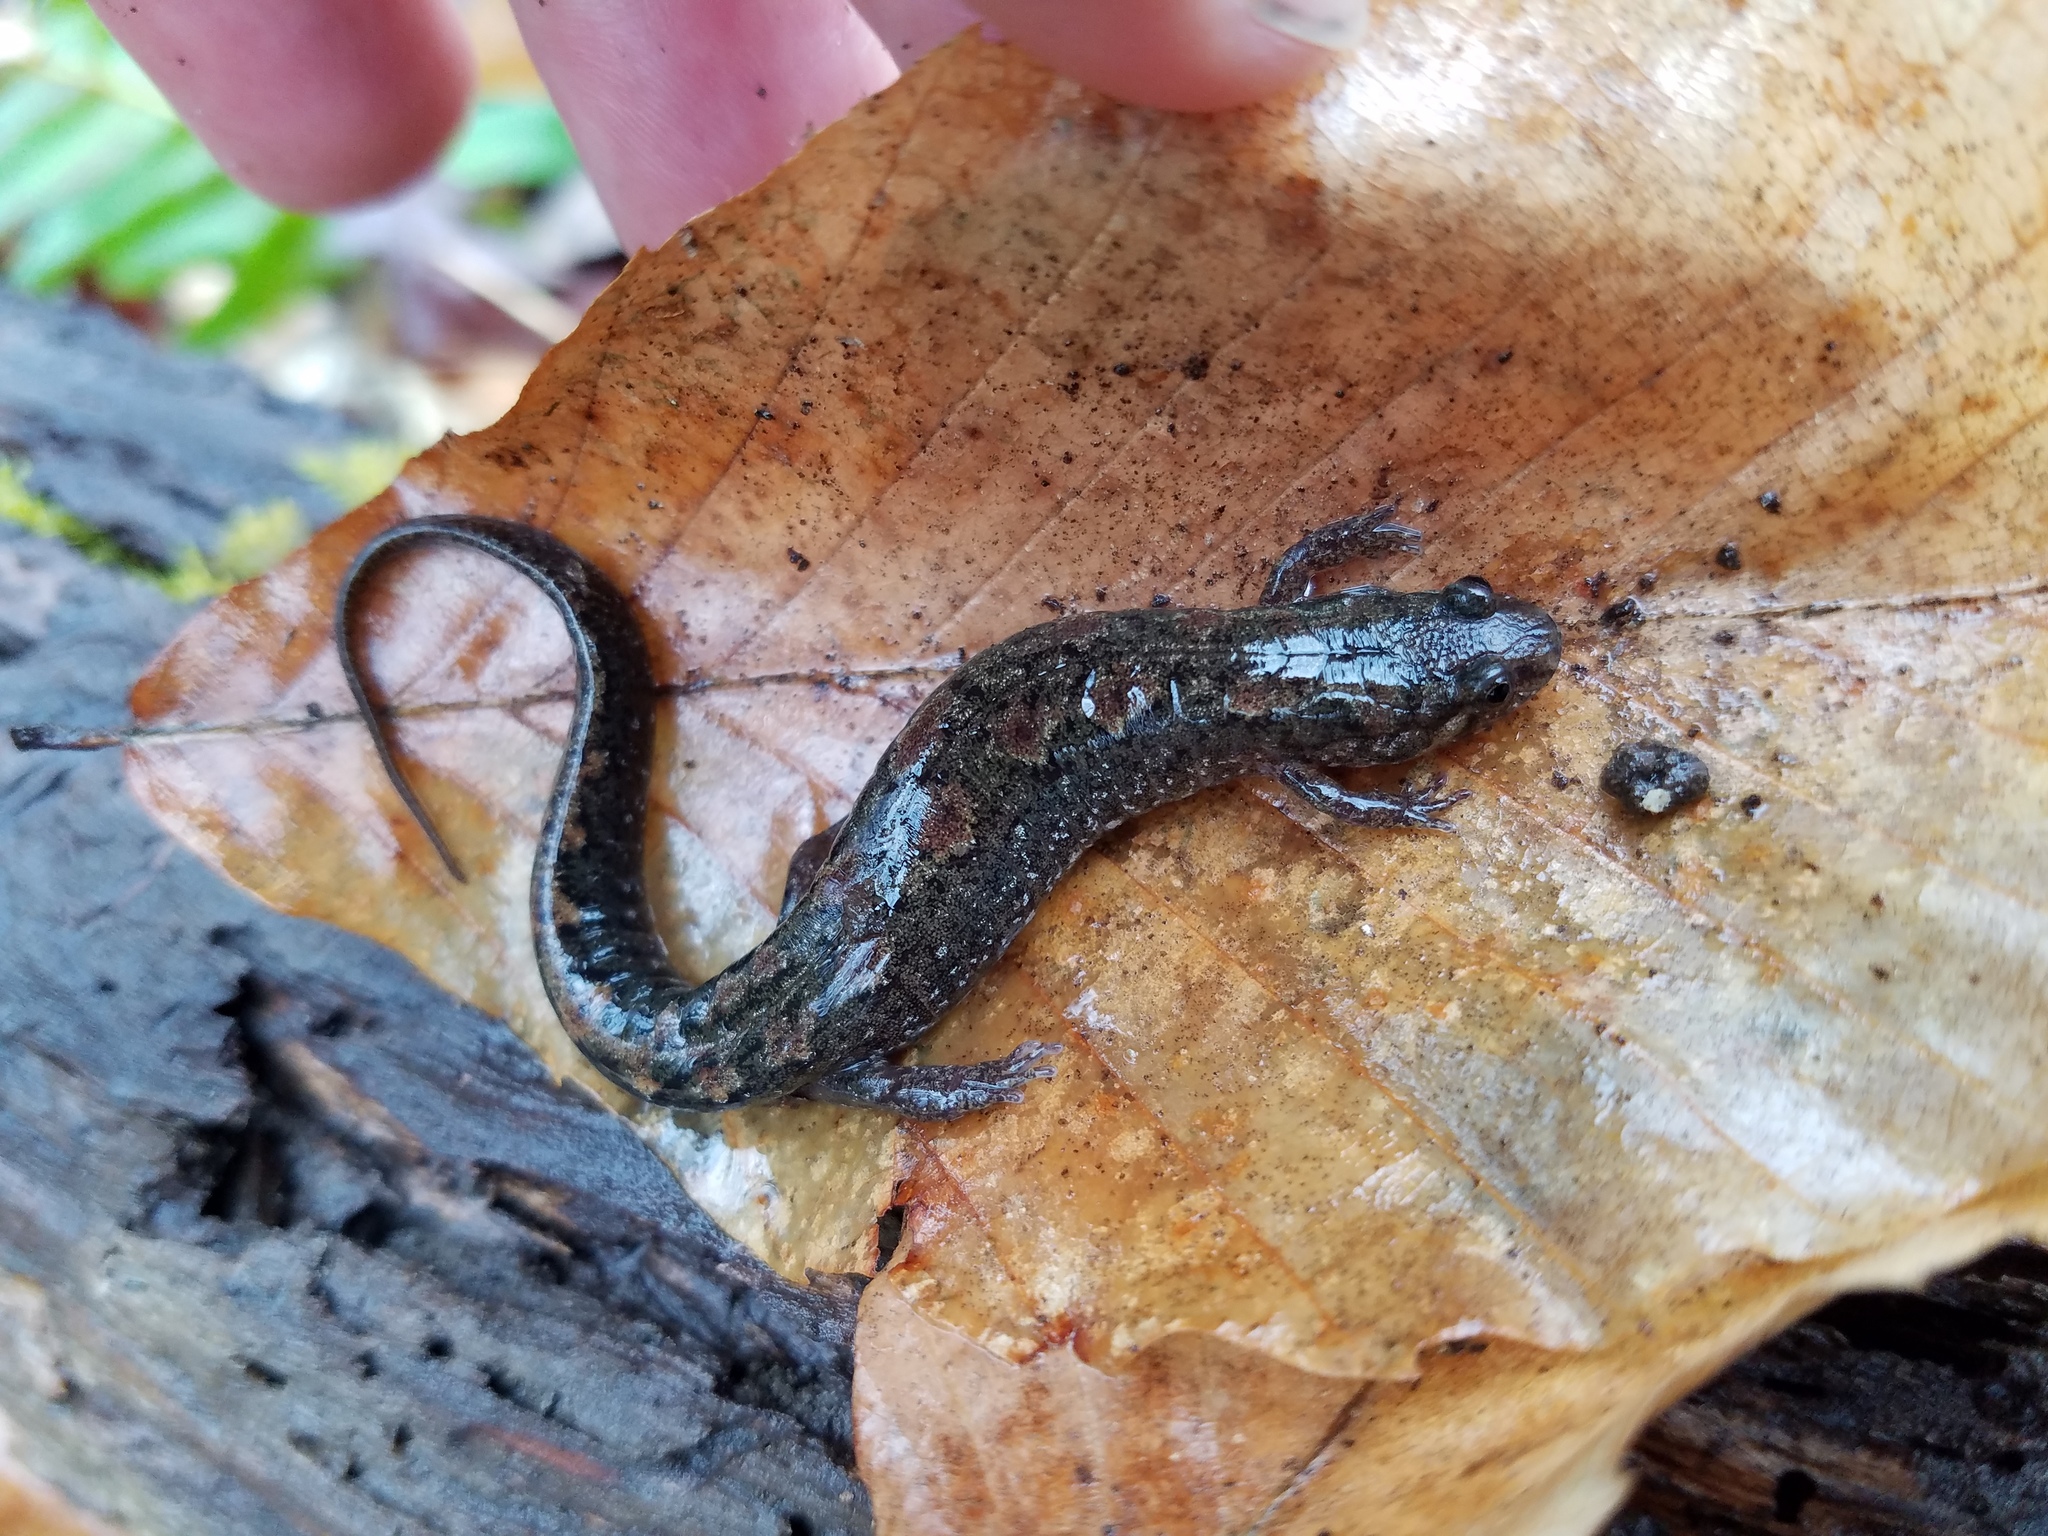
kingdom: Animalia
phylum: Chordata
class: Amphibia
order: Caudata
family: Plethodontidae
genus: Desmognathus
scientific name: Desmognathus
